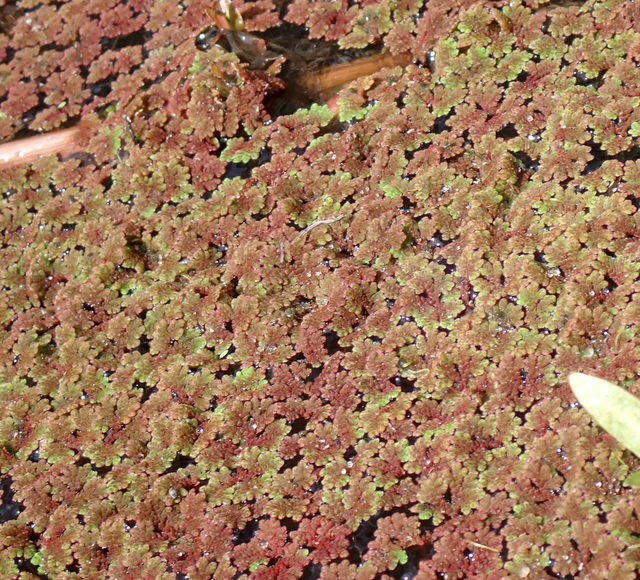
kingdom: Plantae
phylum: Tracheophyta
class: Polypodiopsida
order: Salviniales
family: Salviniaceae
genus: Azolla
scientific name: Azolla filiculoides
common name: Water fern
